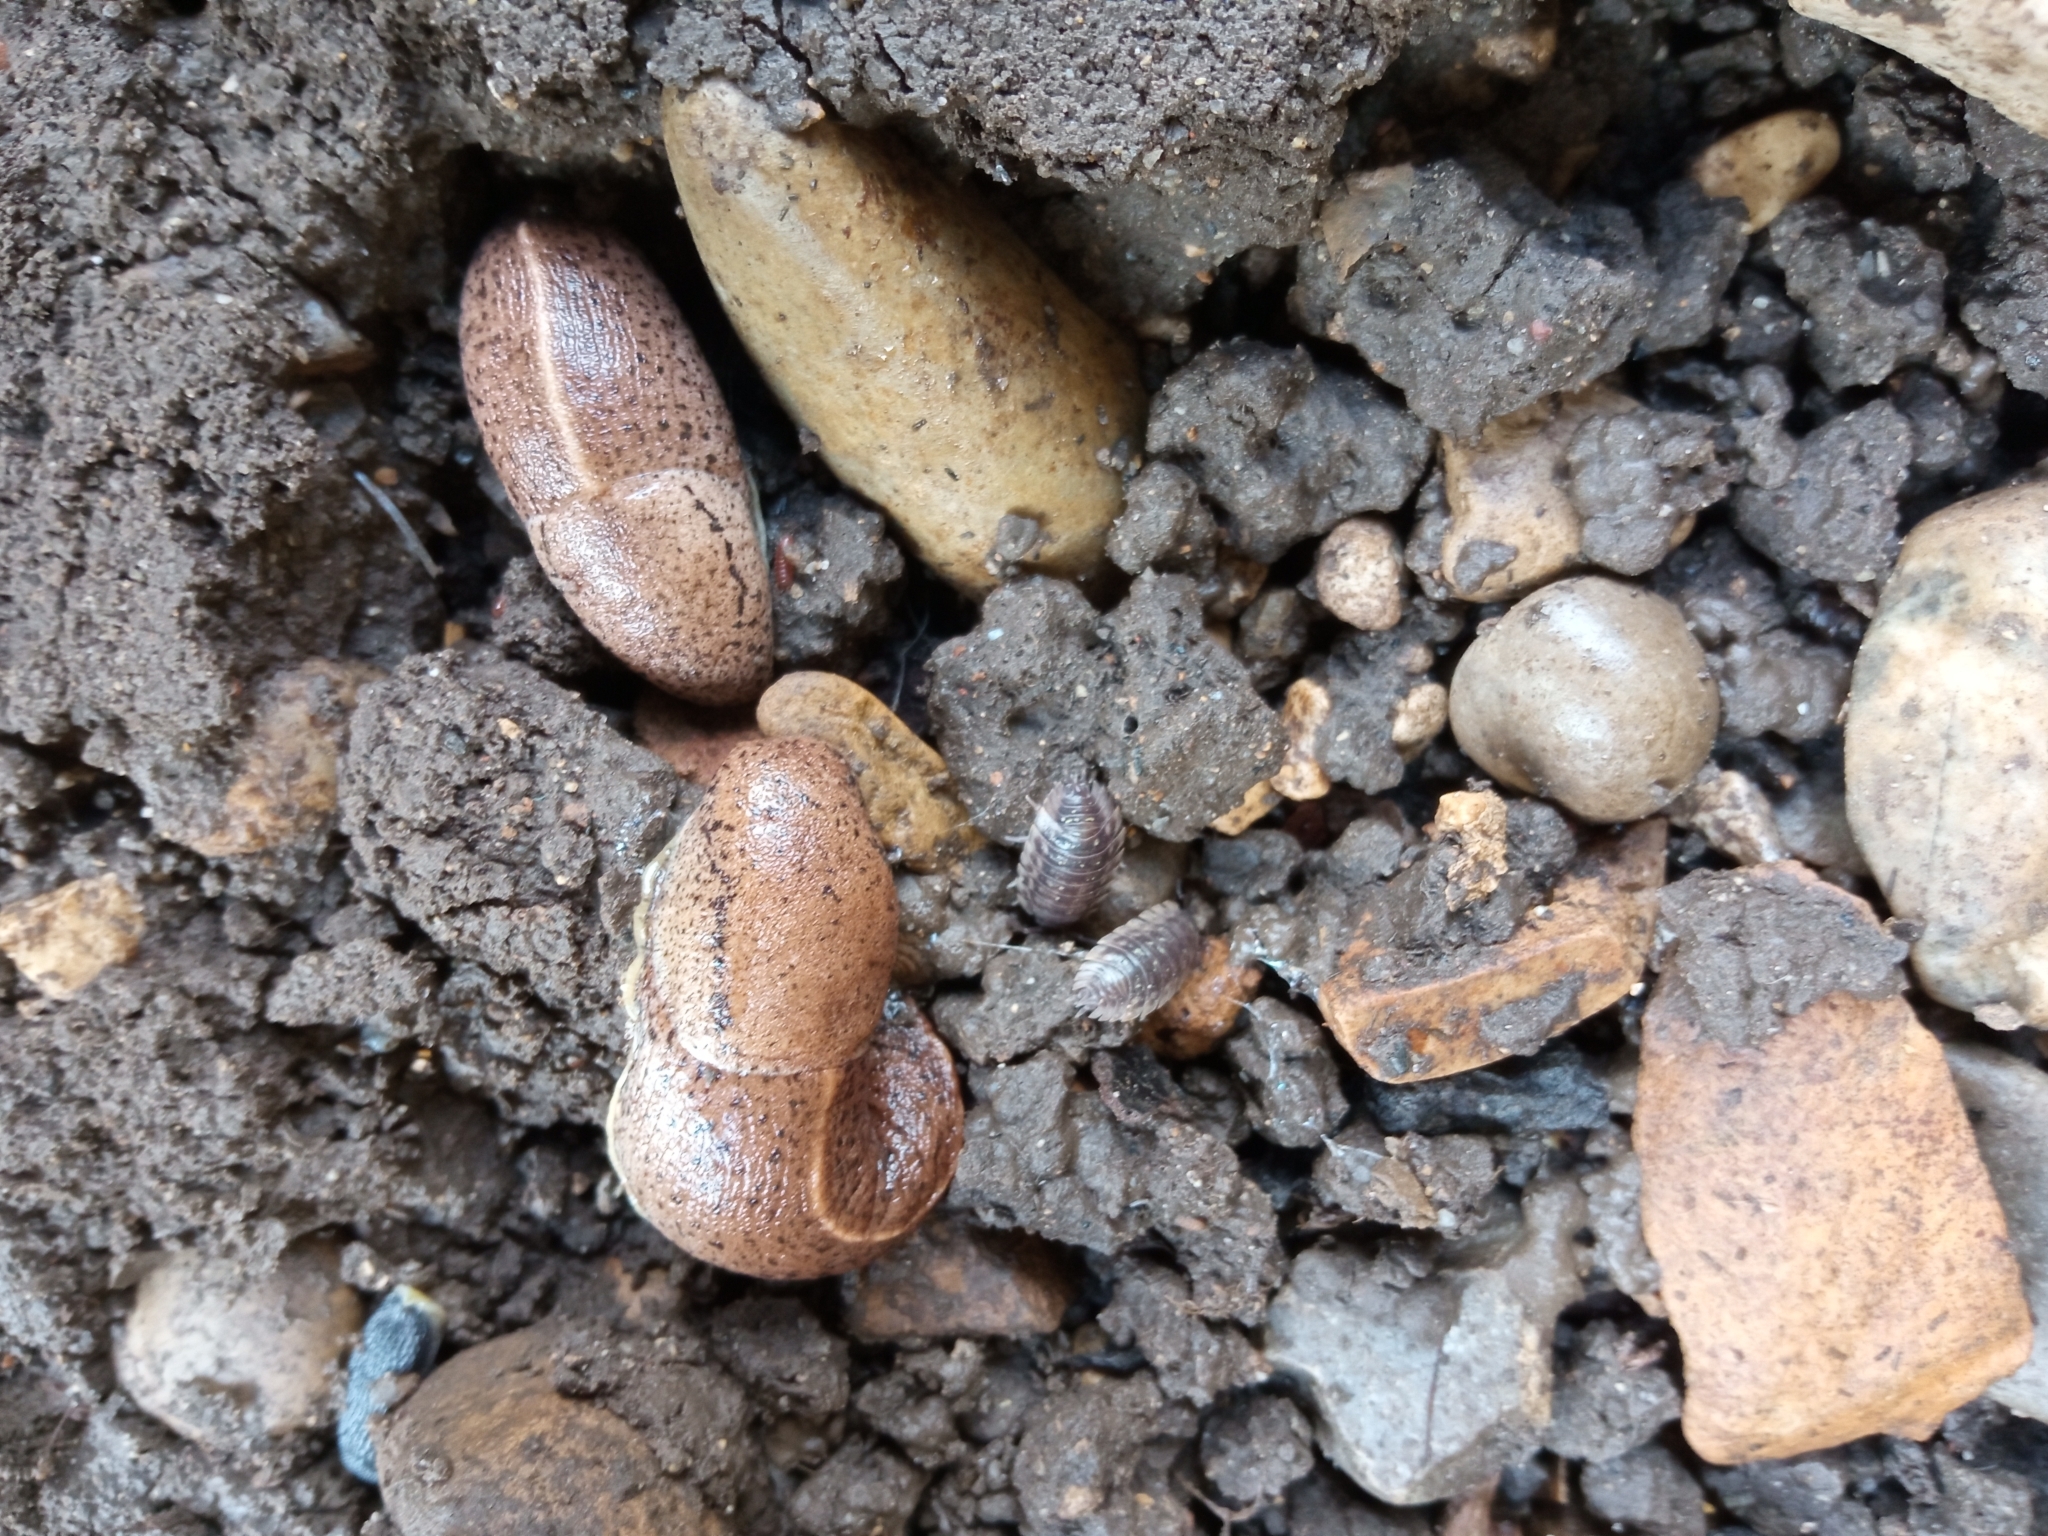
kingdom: Animalia
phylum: Mollusca
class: Gastropoda
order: Stylommatophora
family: Milacidae
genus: Tandonia
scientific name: Tandonia rustica
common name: Bulb-eating slug
